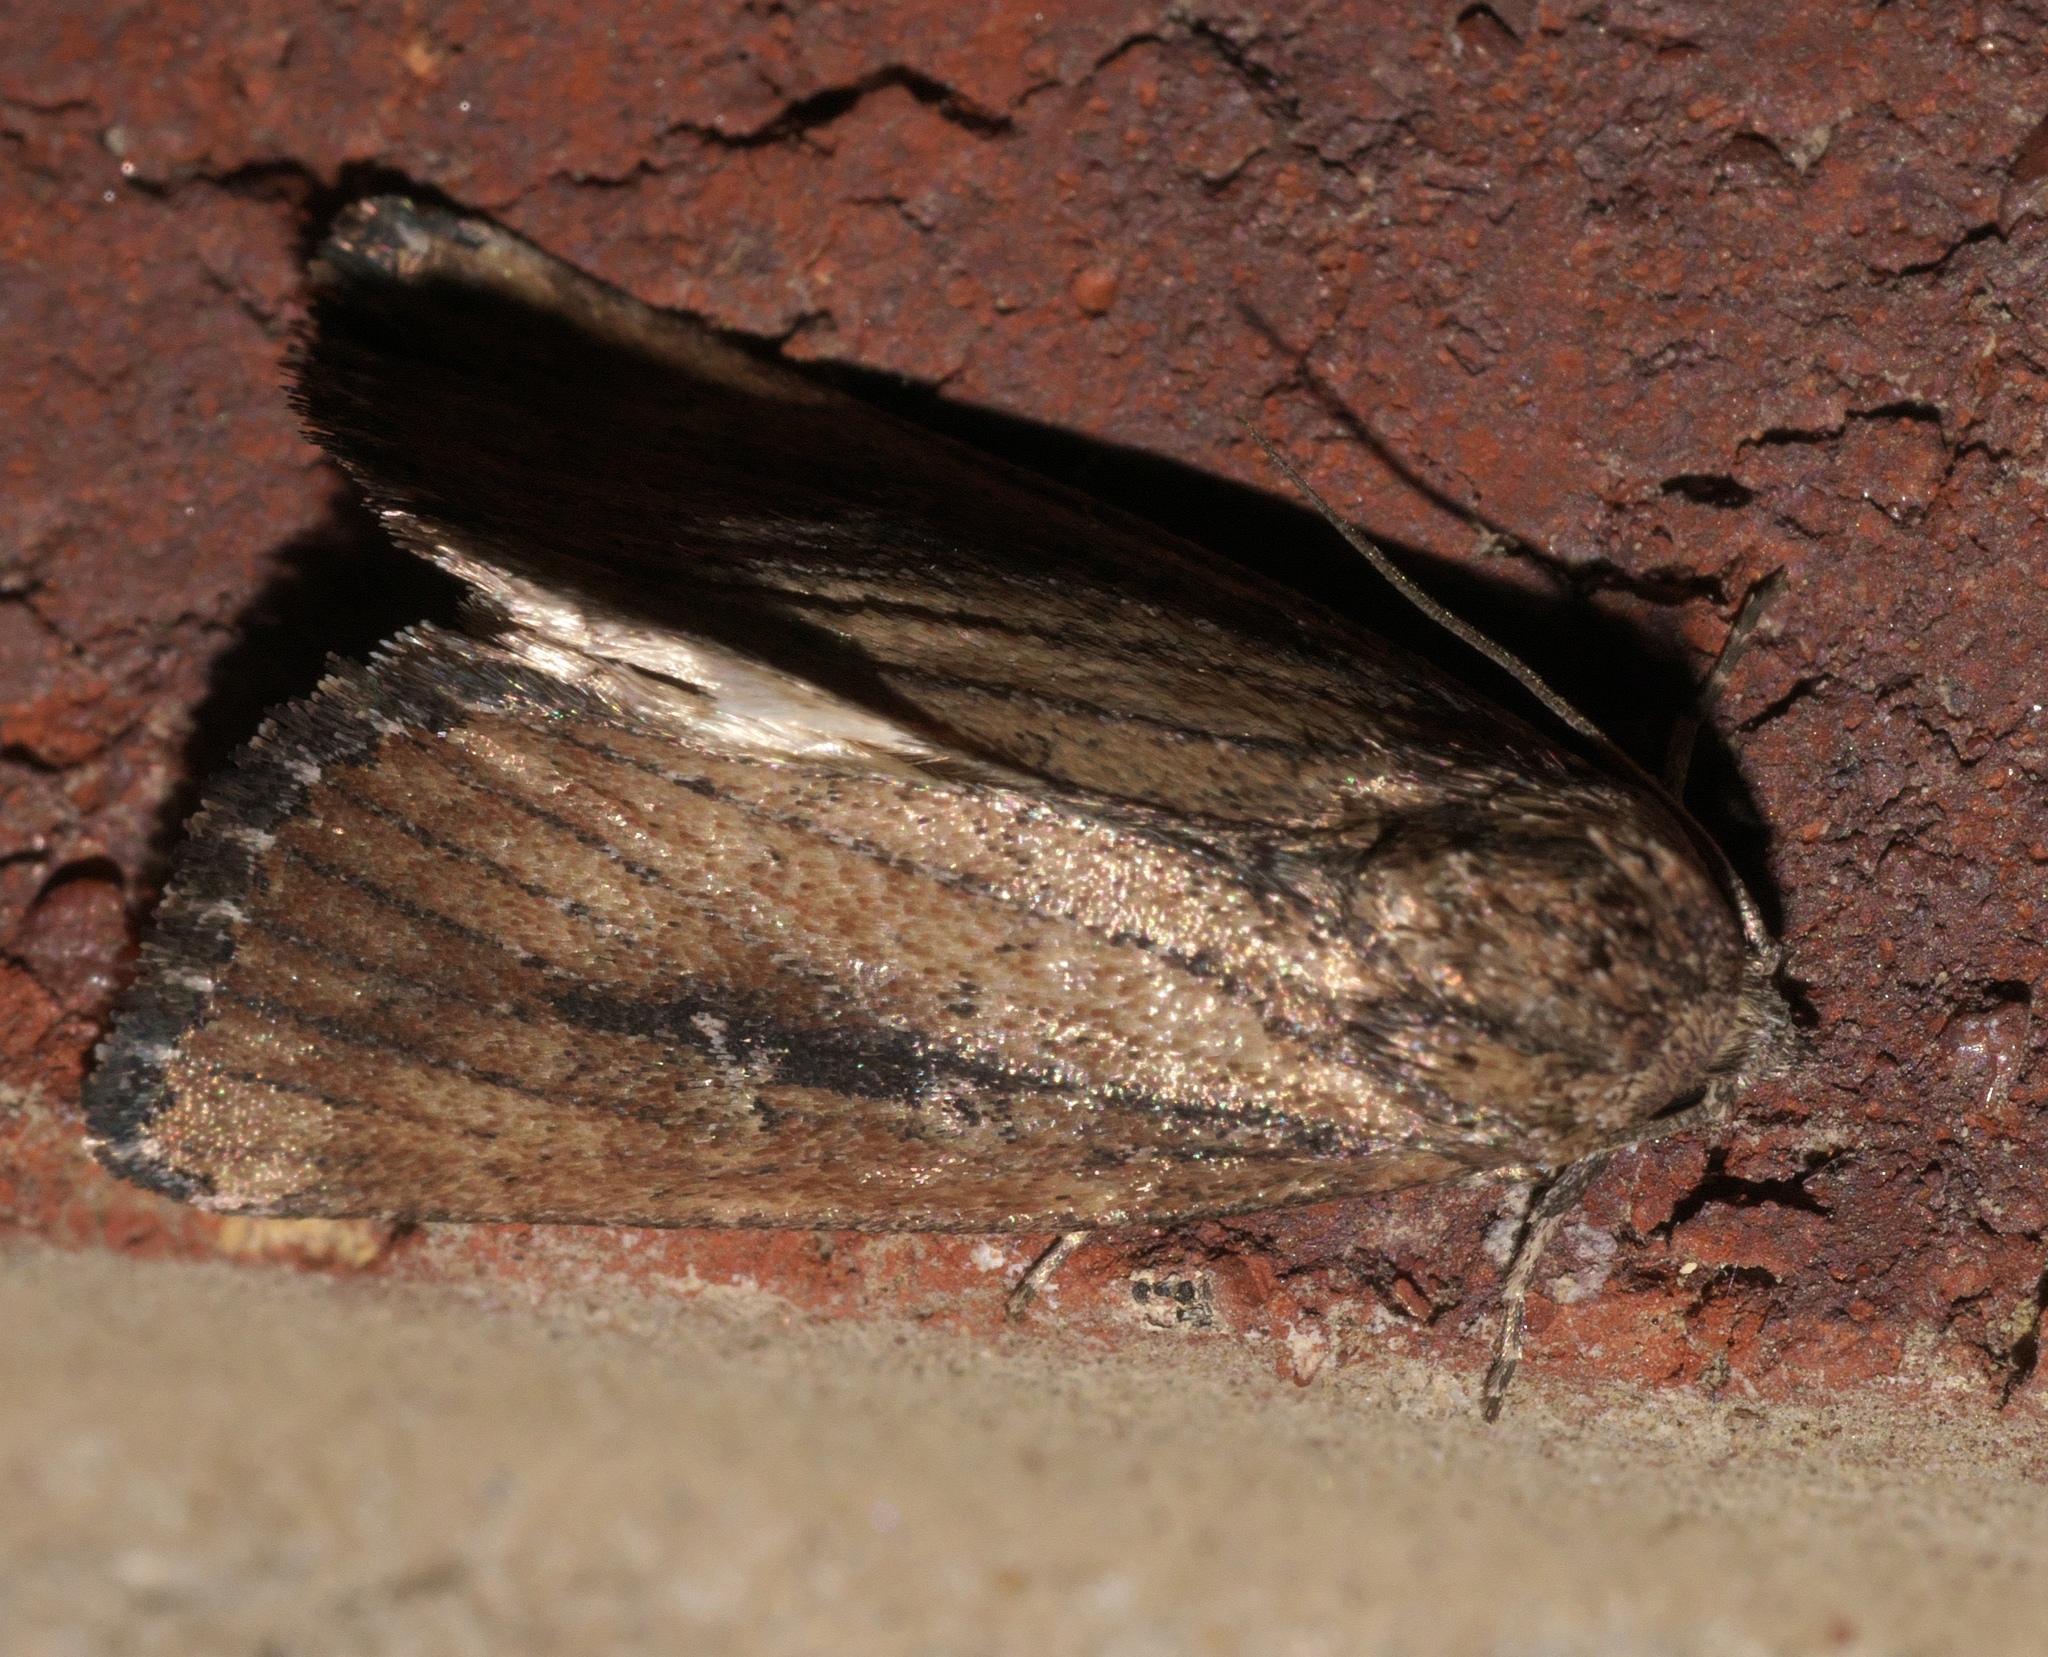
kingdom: Animalia
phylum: Arthropoda
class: Insecta
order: Lepidoptera
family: Noctuidae
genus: Condica
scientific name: Condica videns
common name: White-dotted groundling
